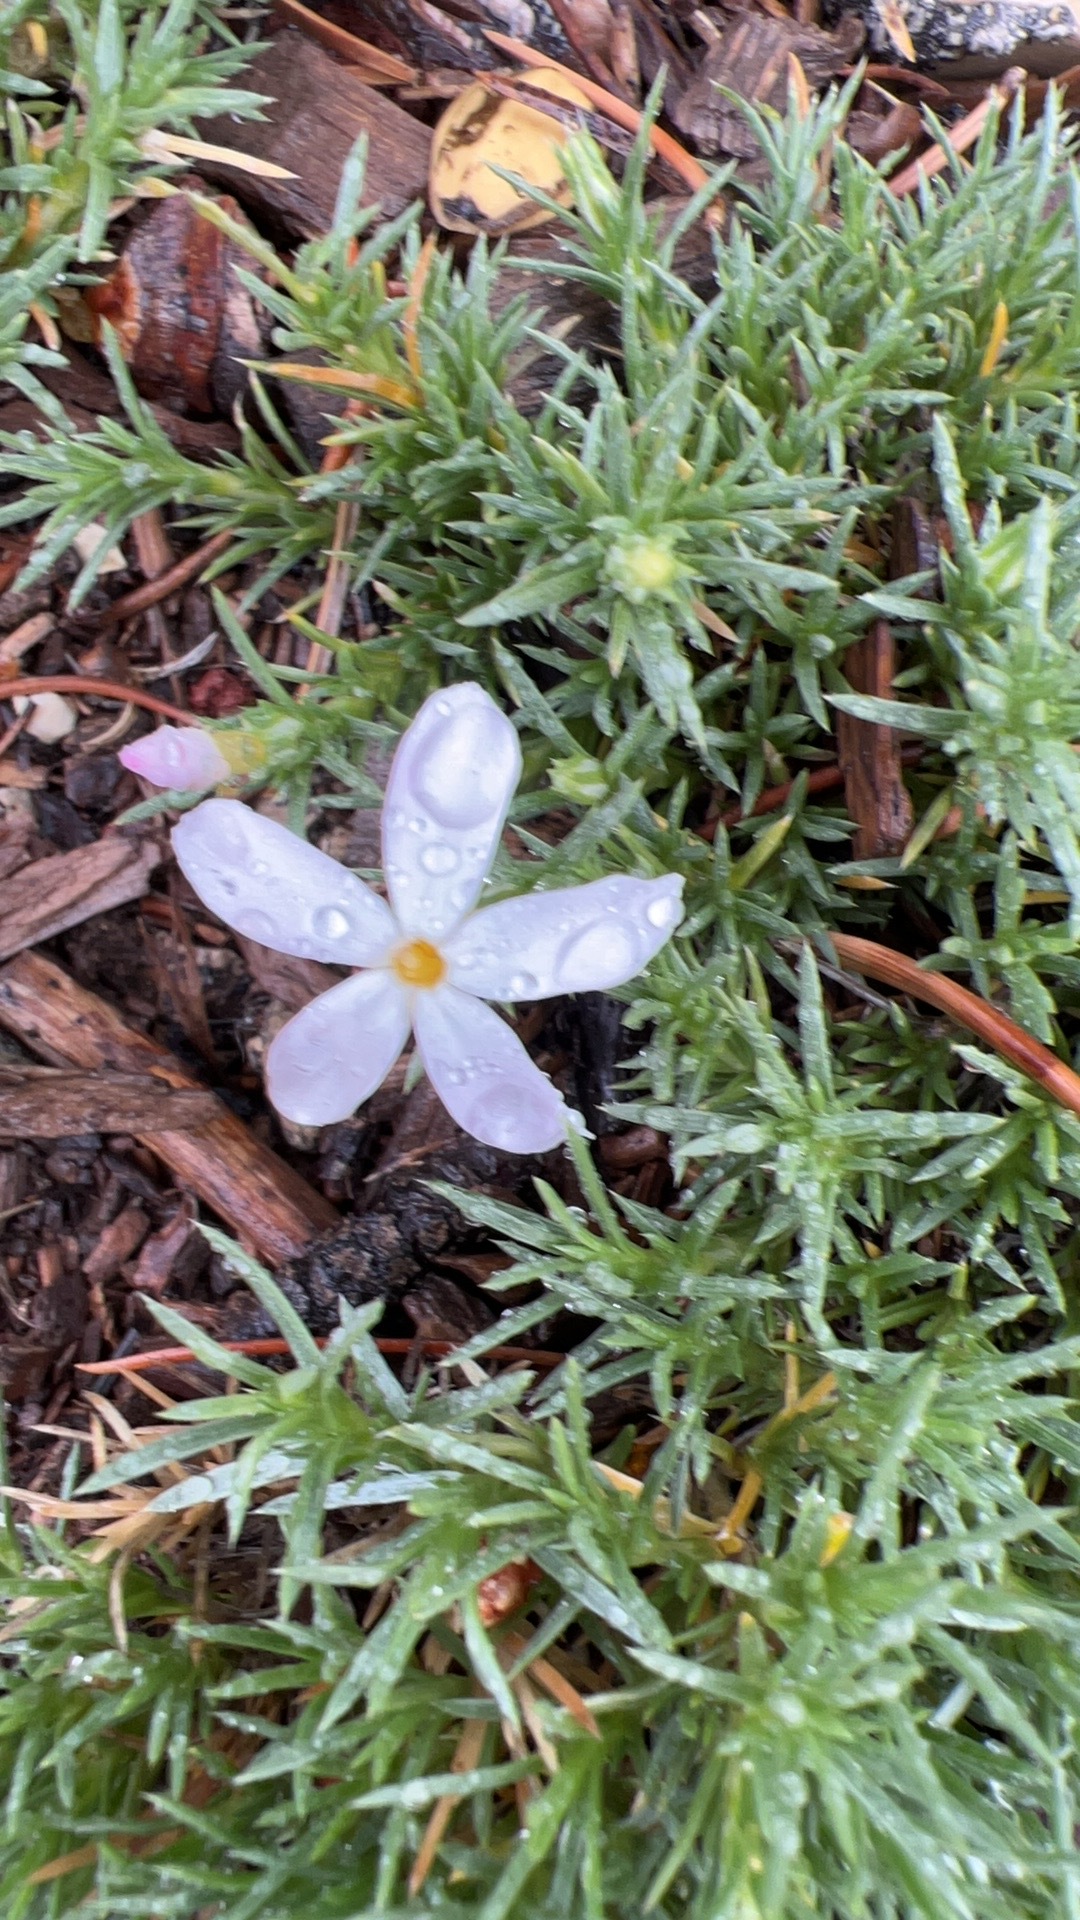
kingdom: Plantae
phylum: Tracheophyta
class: Magnoliopsida
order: Ericales
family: Polemoniaceae
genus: Phlox
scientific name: Phlox austromontana
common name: Desert phlox
